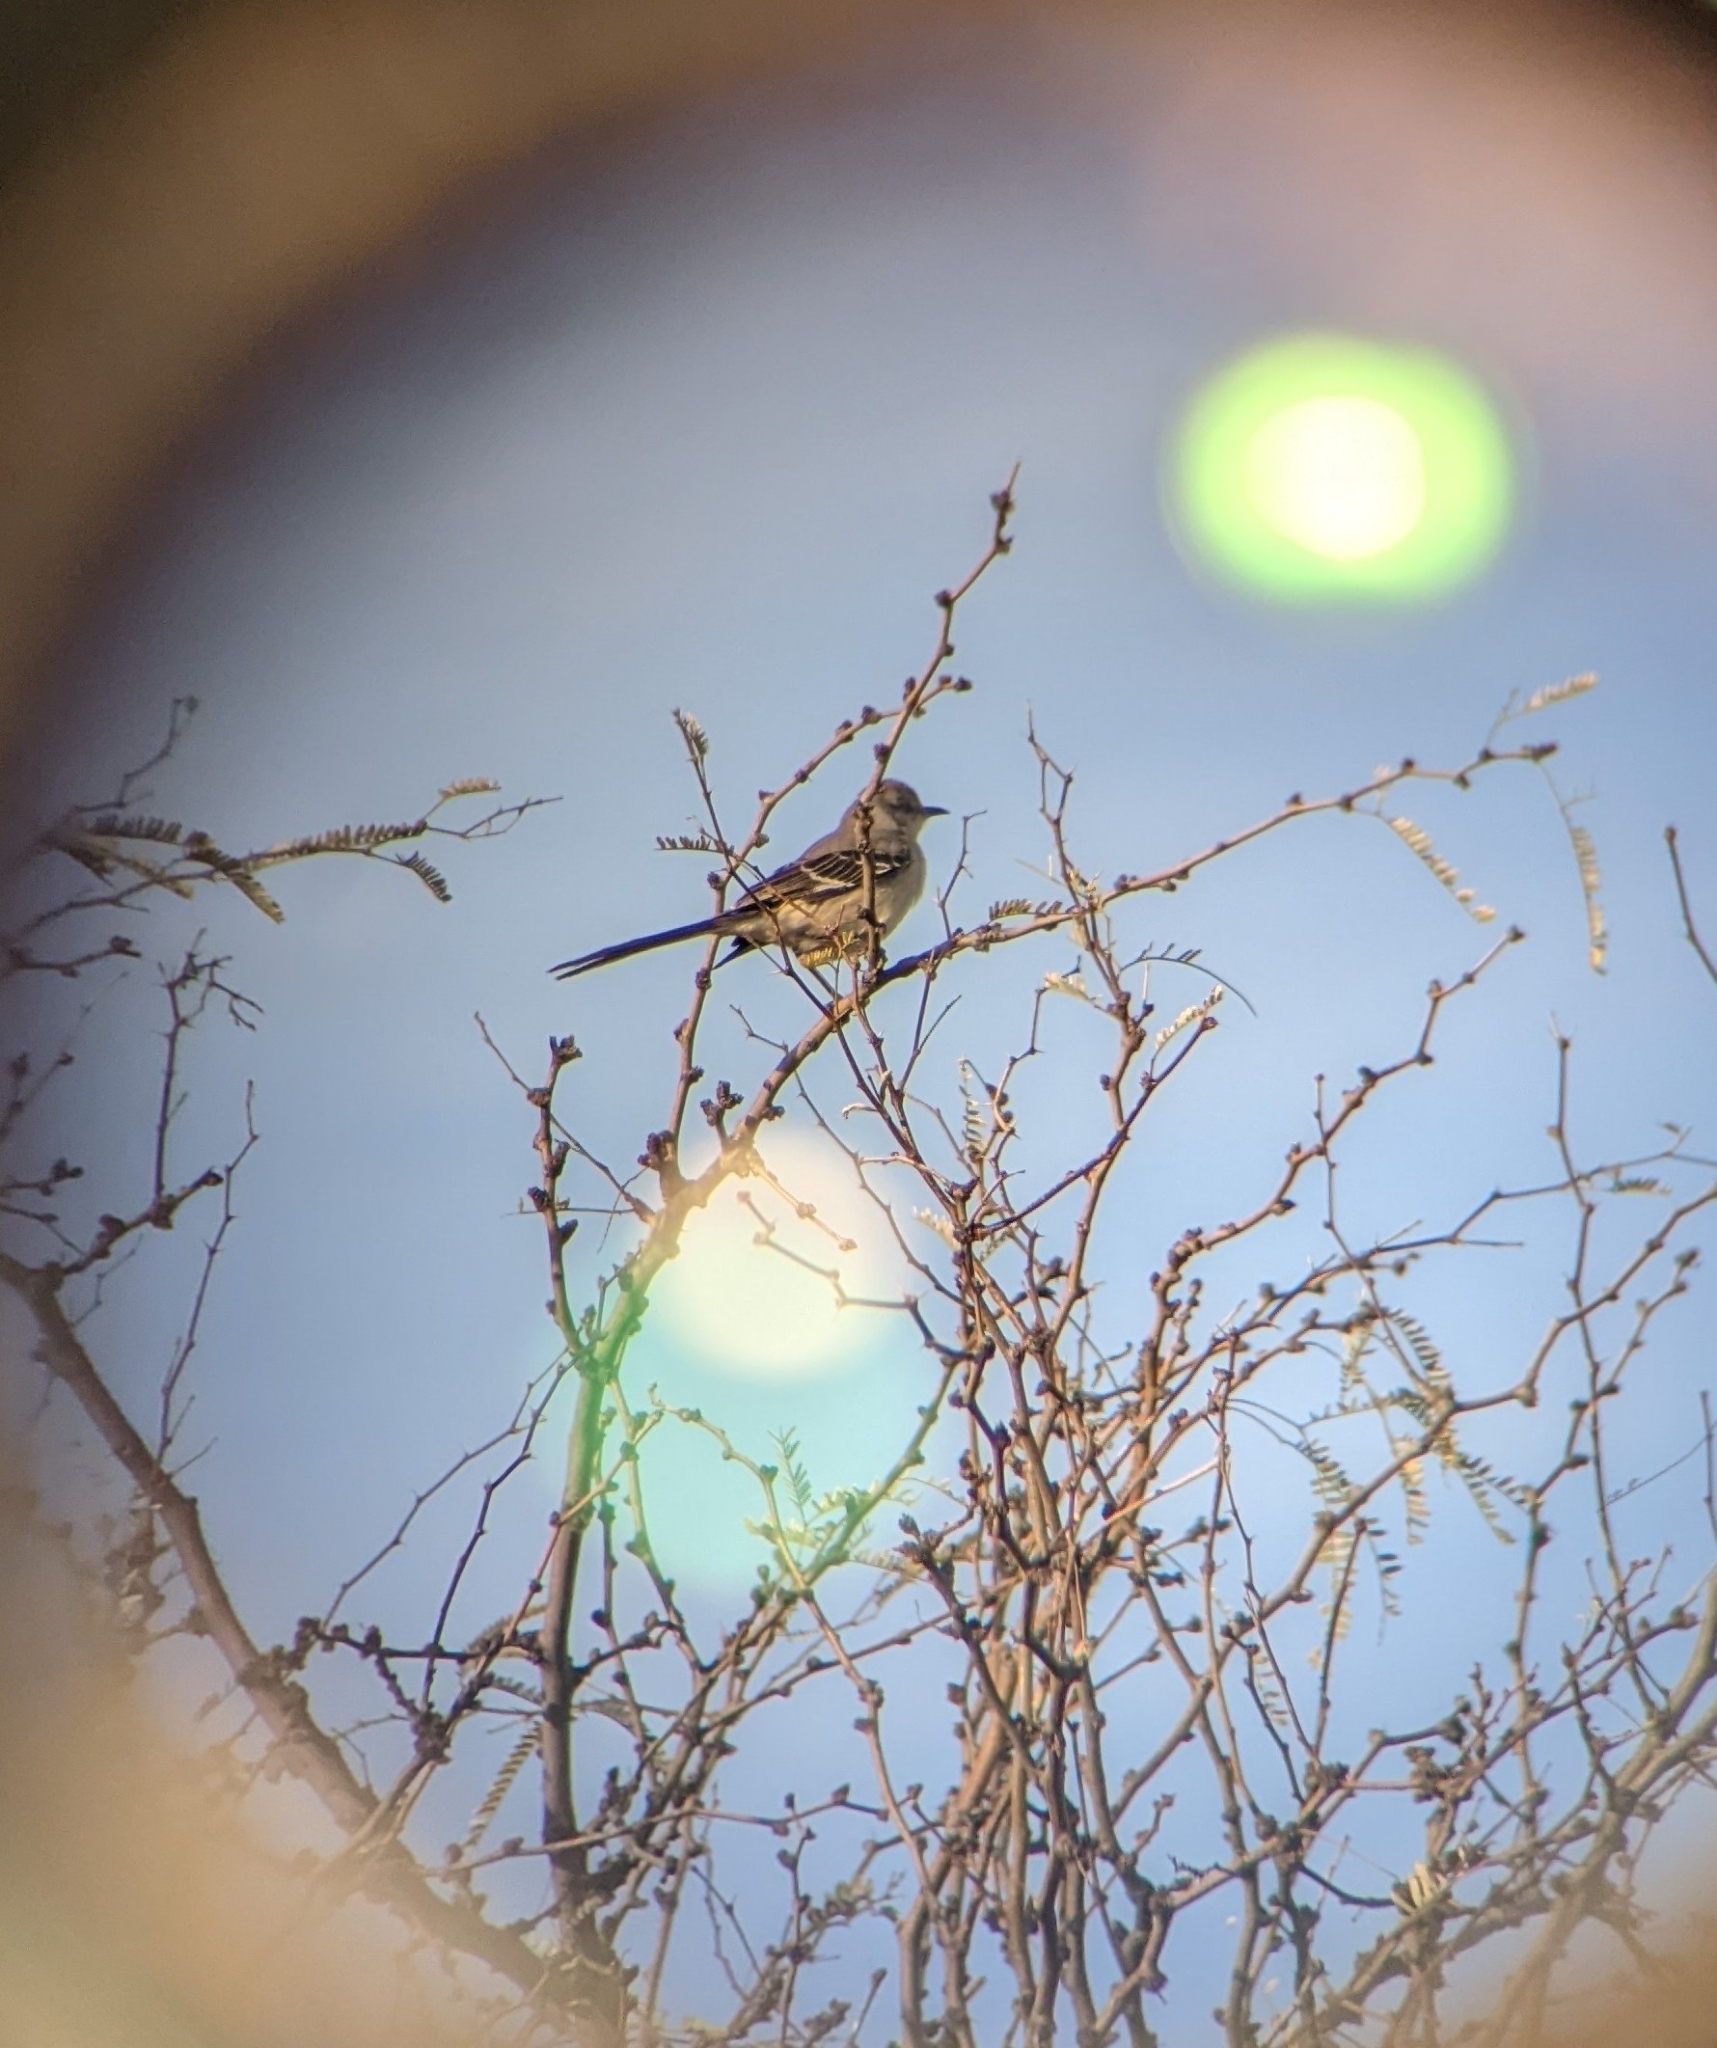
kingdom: Animalia
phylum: Chordata
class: Aves
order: Passeriformes
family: Mimidae
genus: Mimus
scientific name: Mimus polyglottos
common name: Northern mockingbird
